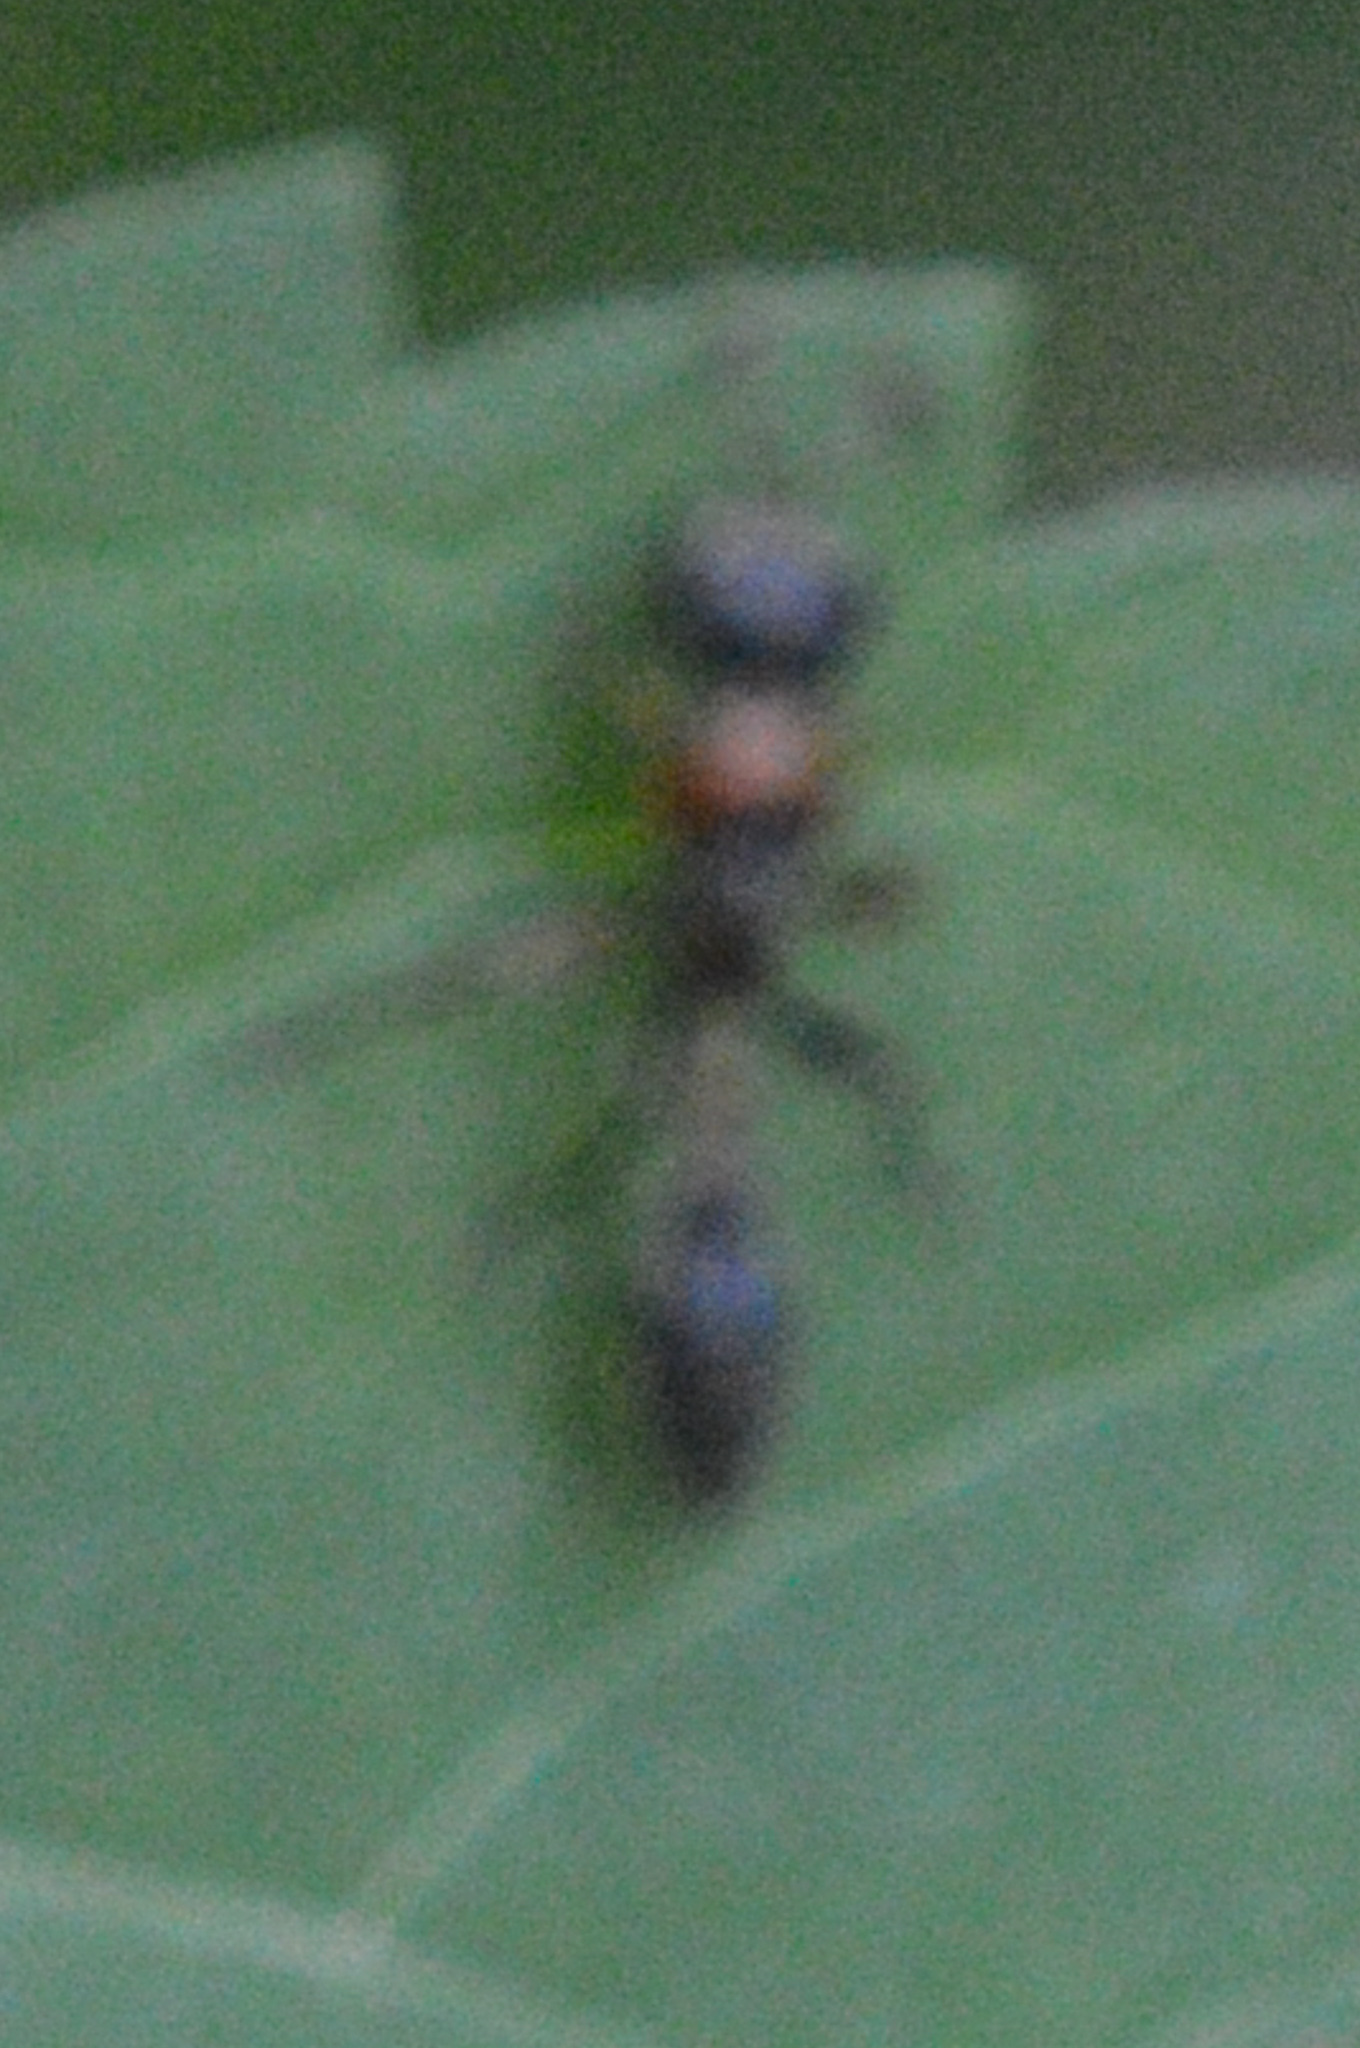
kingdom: Animalia
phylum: Arthropoda
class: Insecta
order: Hymenoptera
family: Formicidae
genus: Pseudomyrmex
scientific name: Pseudomyrmex gracilis
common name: Graceful twig ant
